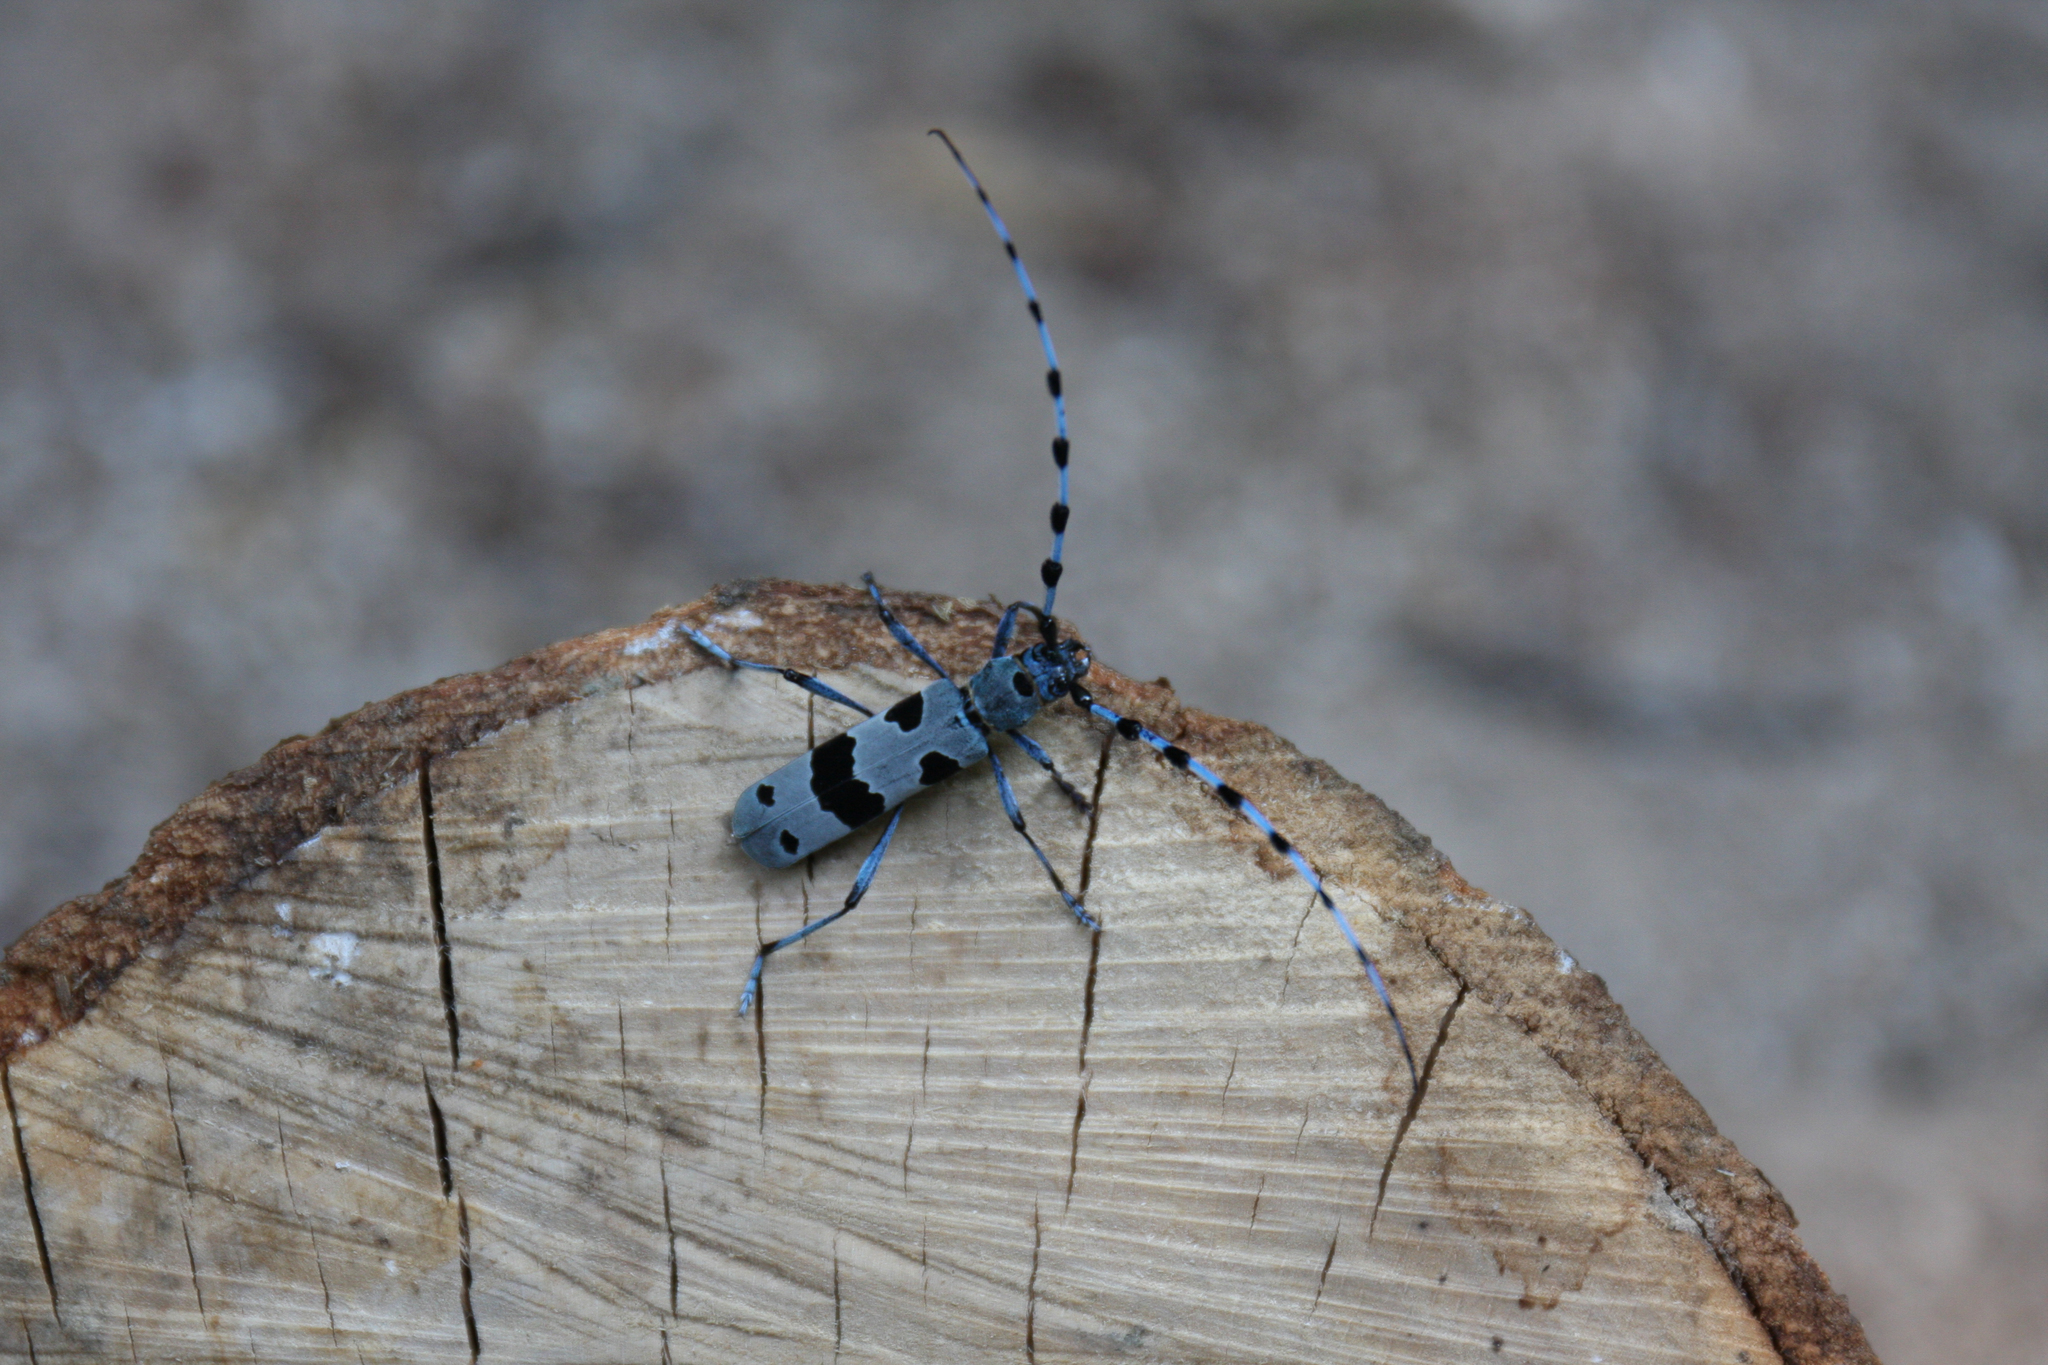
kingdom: Animalia
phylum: Arthropoda
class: Insecta
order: Coleoptera
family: Cerambycidae
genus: Rosalia
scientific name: Rosalia alpina
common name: Rosalia longicorn
